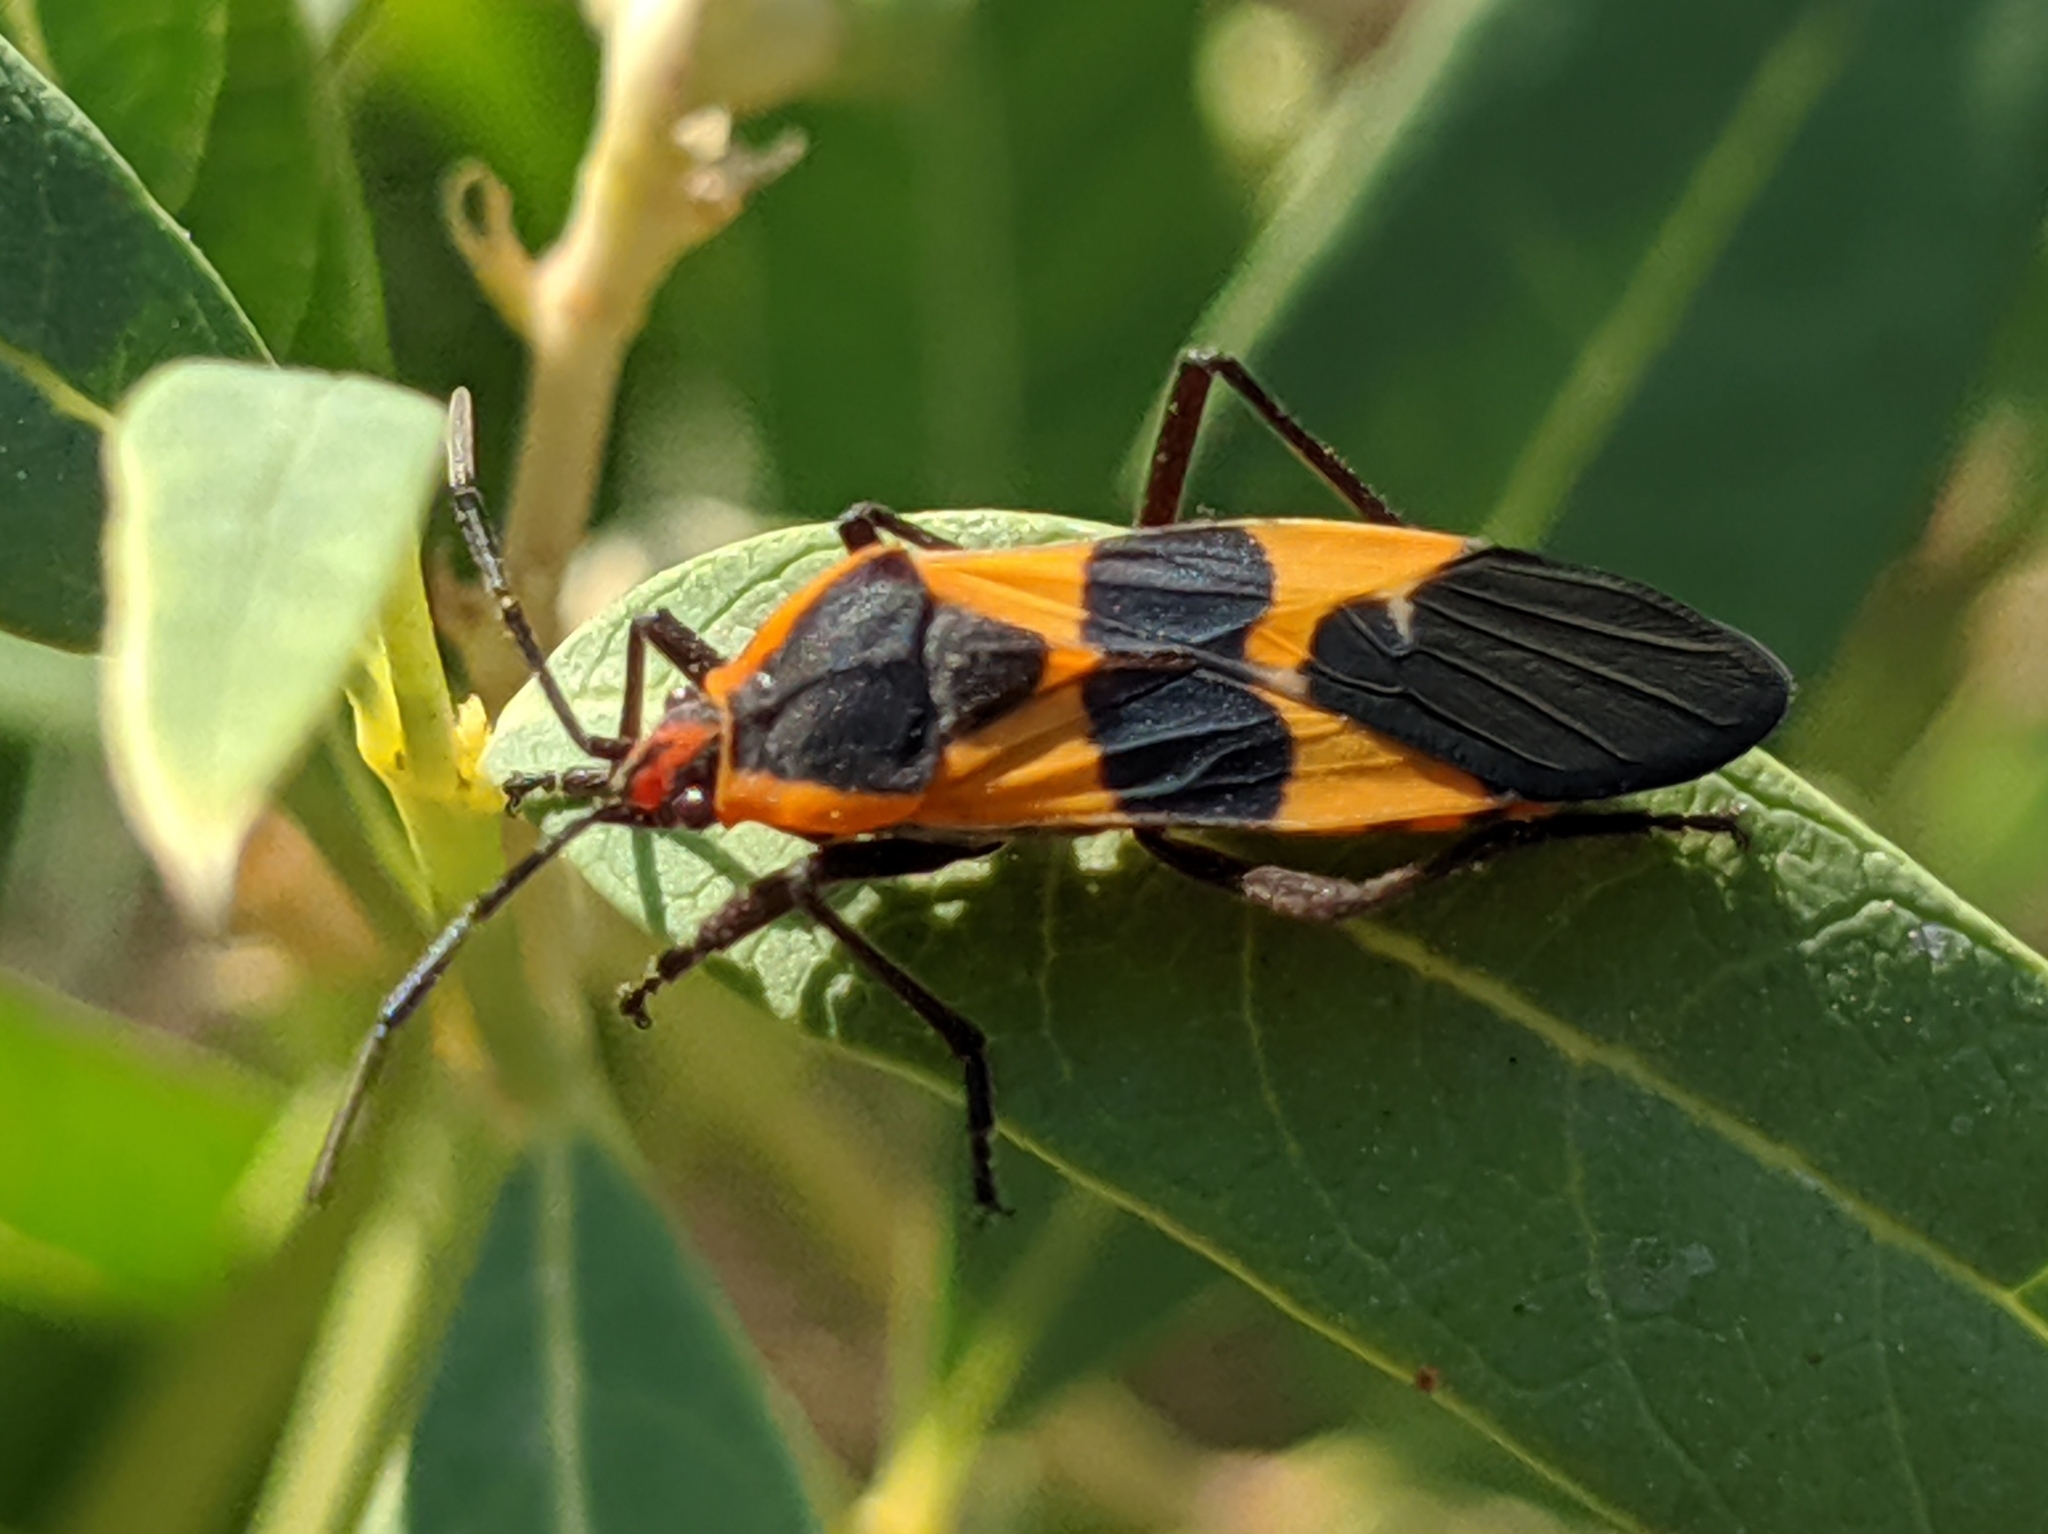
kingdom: Animalia
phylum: Arthropoda
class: Insecta
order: Hemiptera
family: Lygaeidae
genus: Oncopeltus
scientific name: Oncopeltus fasciatus
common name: Large milkweed bug
